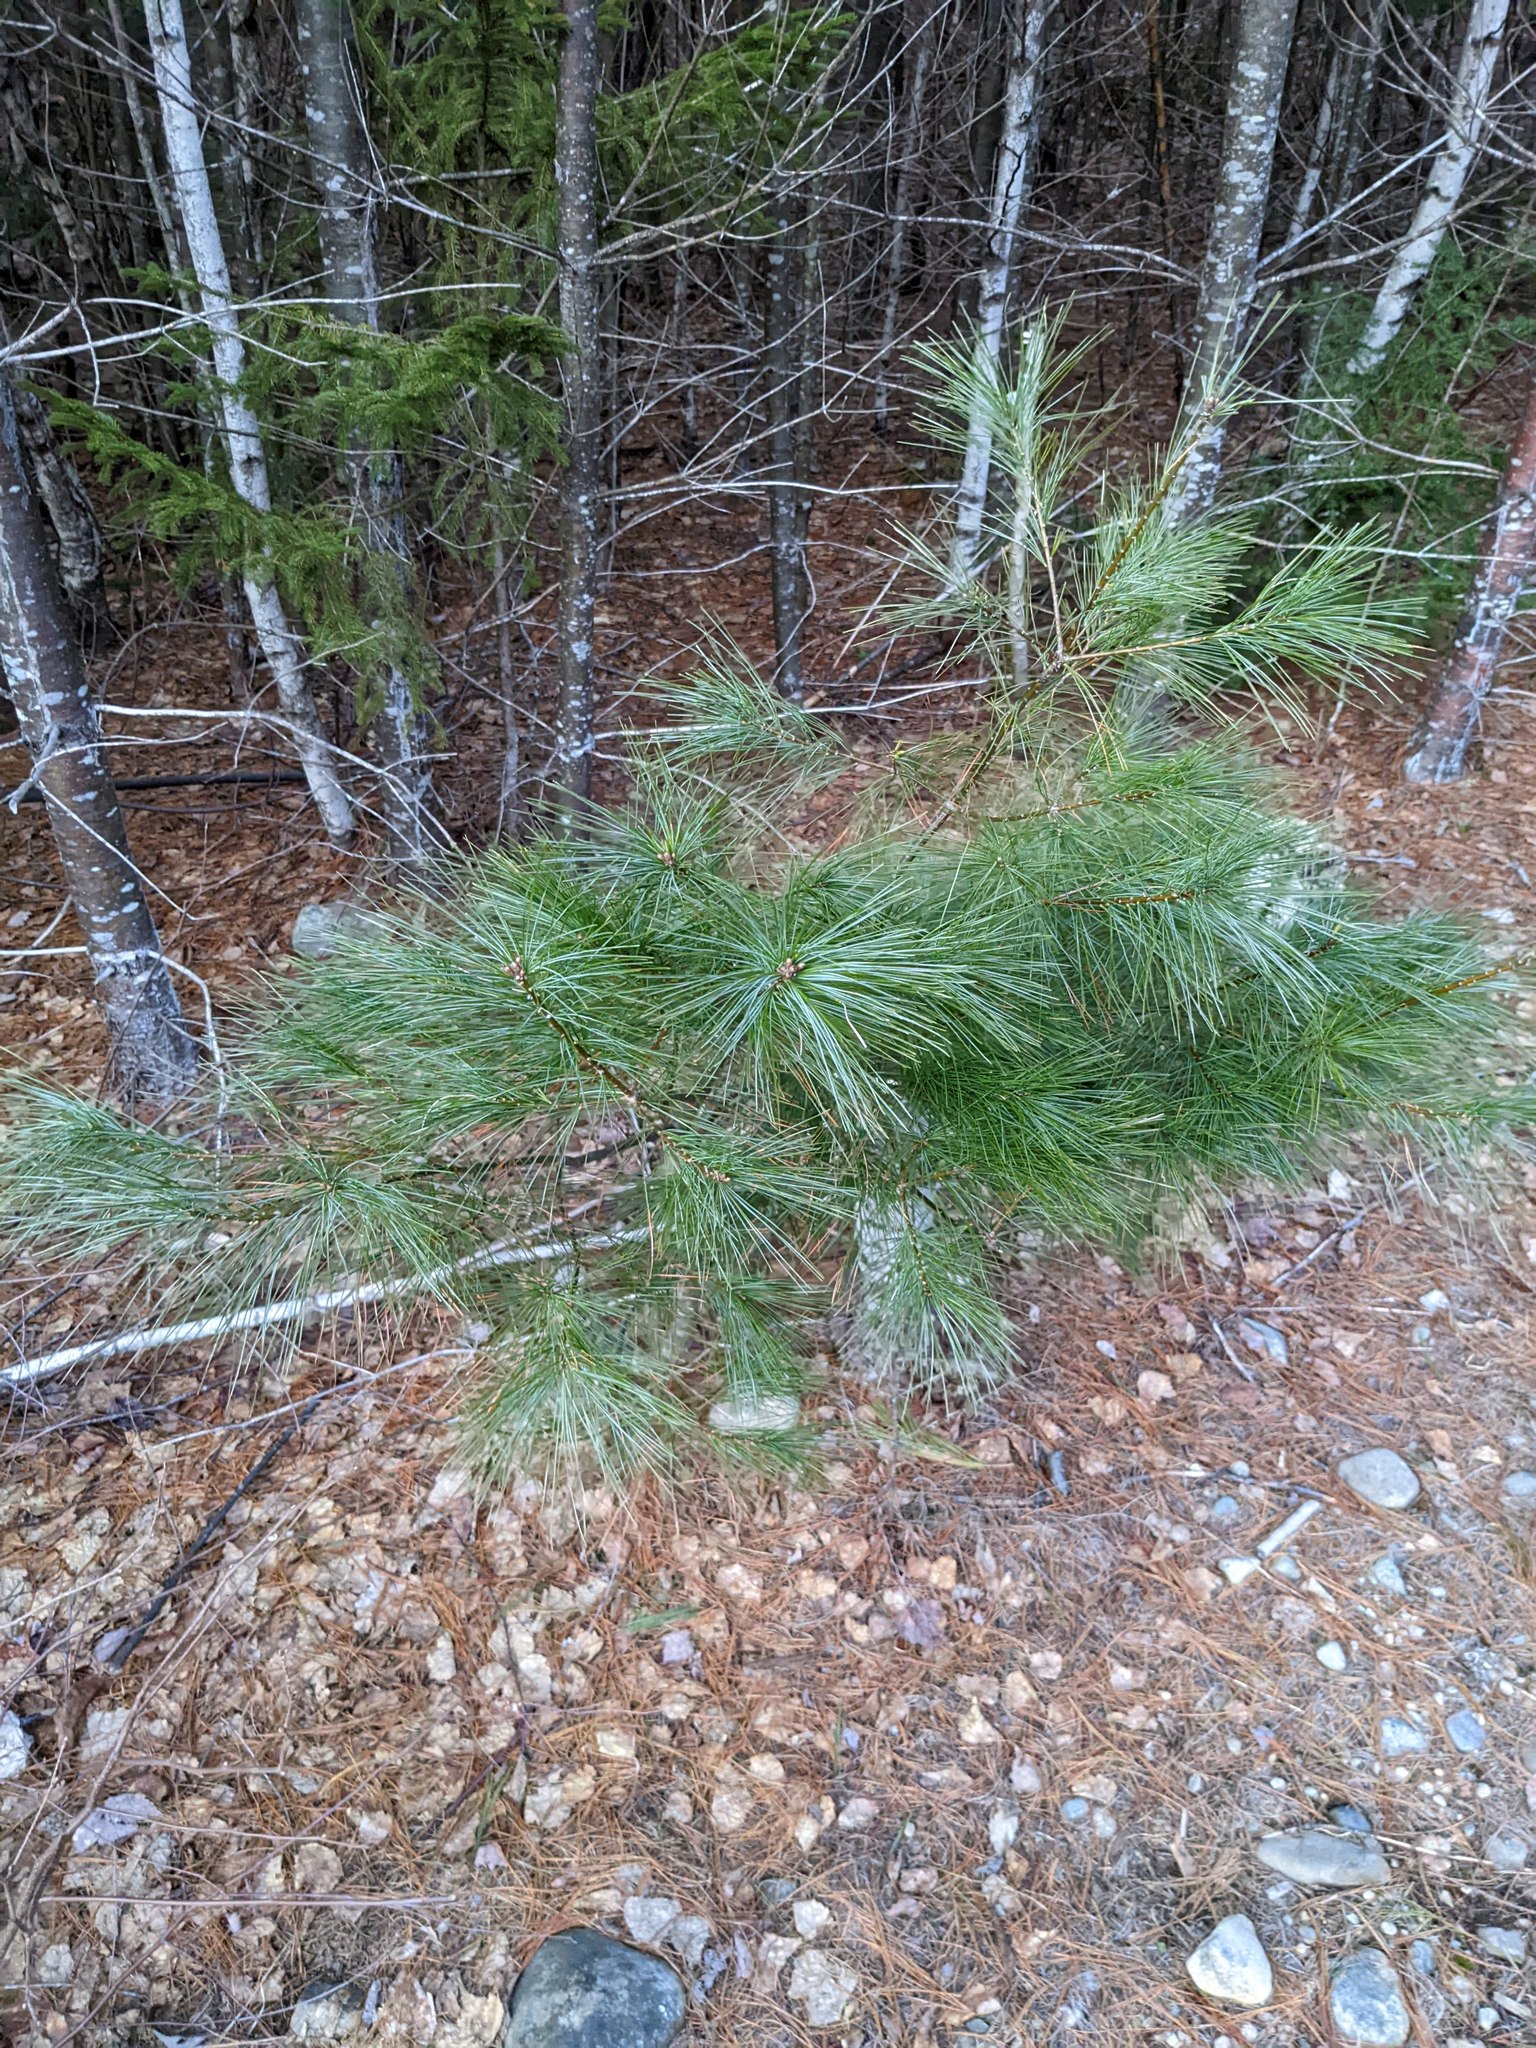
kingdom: Plantae
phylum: Tracheophyta
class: Pinopsida
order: Pinales
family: Pinaceae
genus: Pinus
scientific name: Pinus strobus
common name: Weymouth pine
